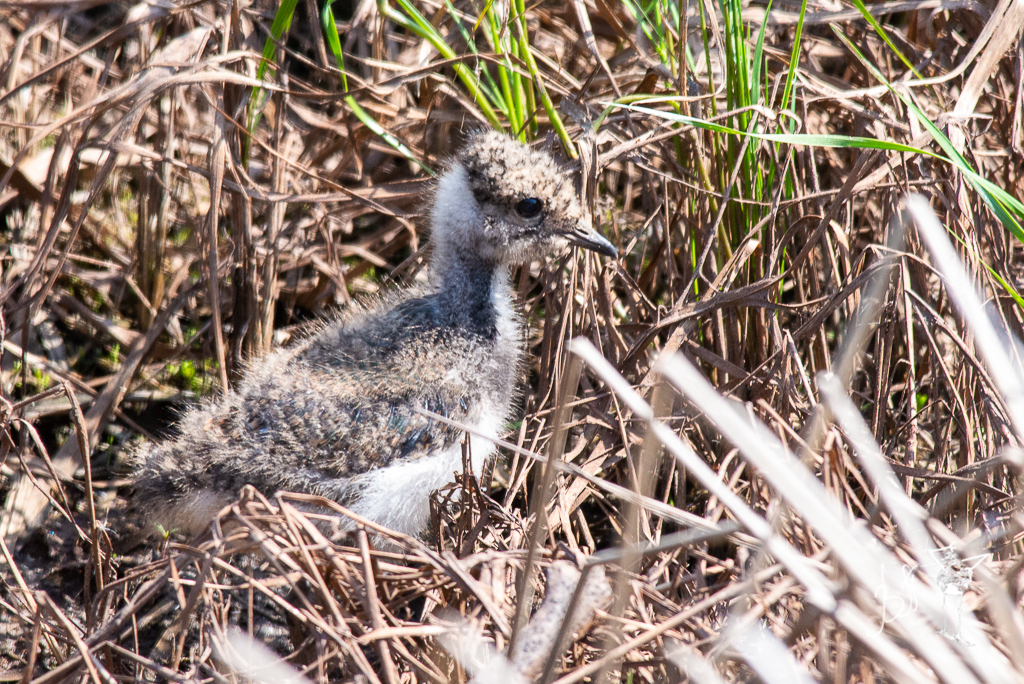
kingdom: Animalia
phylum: Chordata
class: Aves
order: Charadriiformes
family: Charadriidae
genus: Vanellus
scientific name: Vanellus vanellus
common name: Northern lapwing
